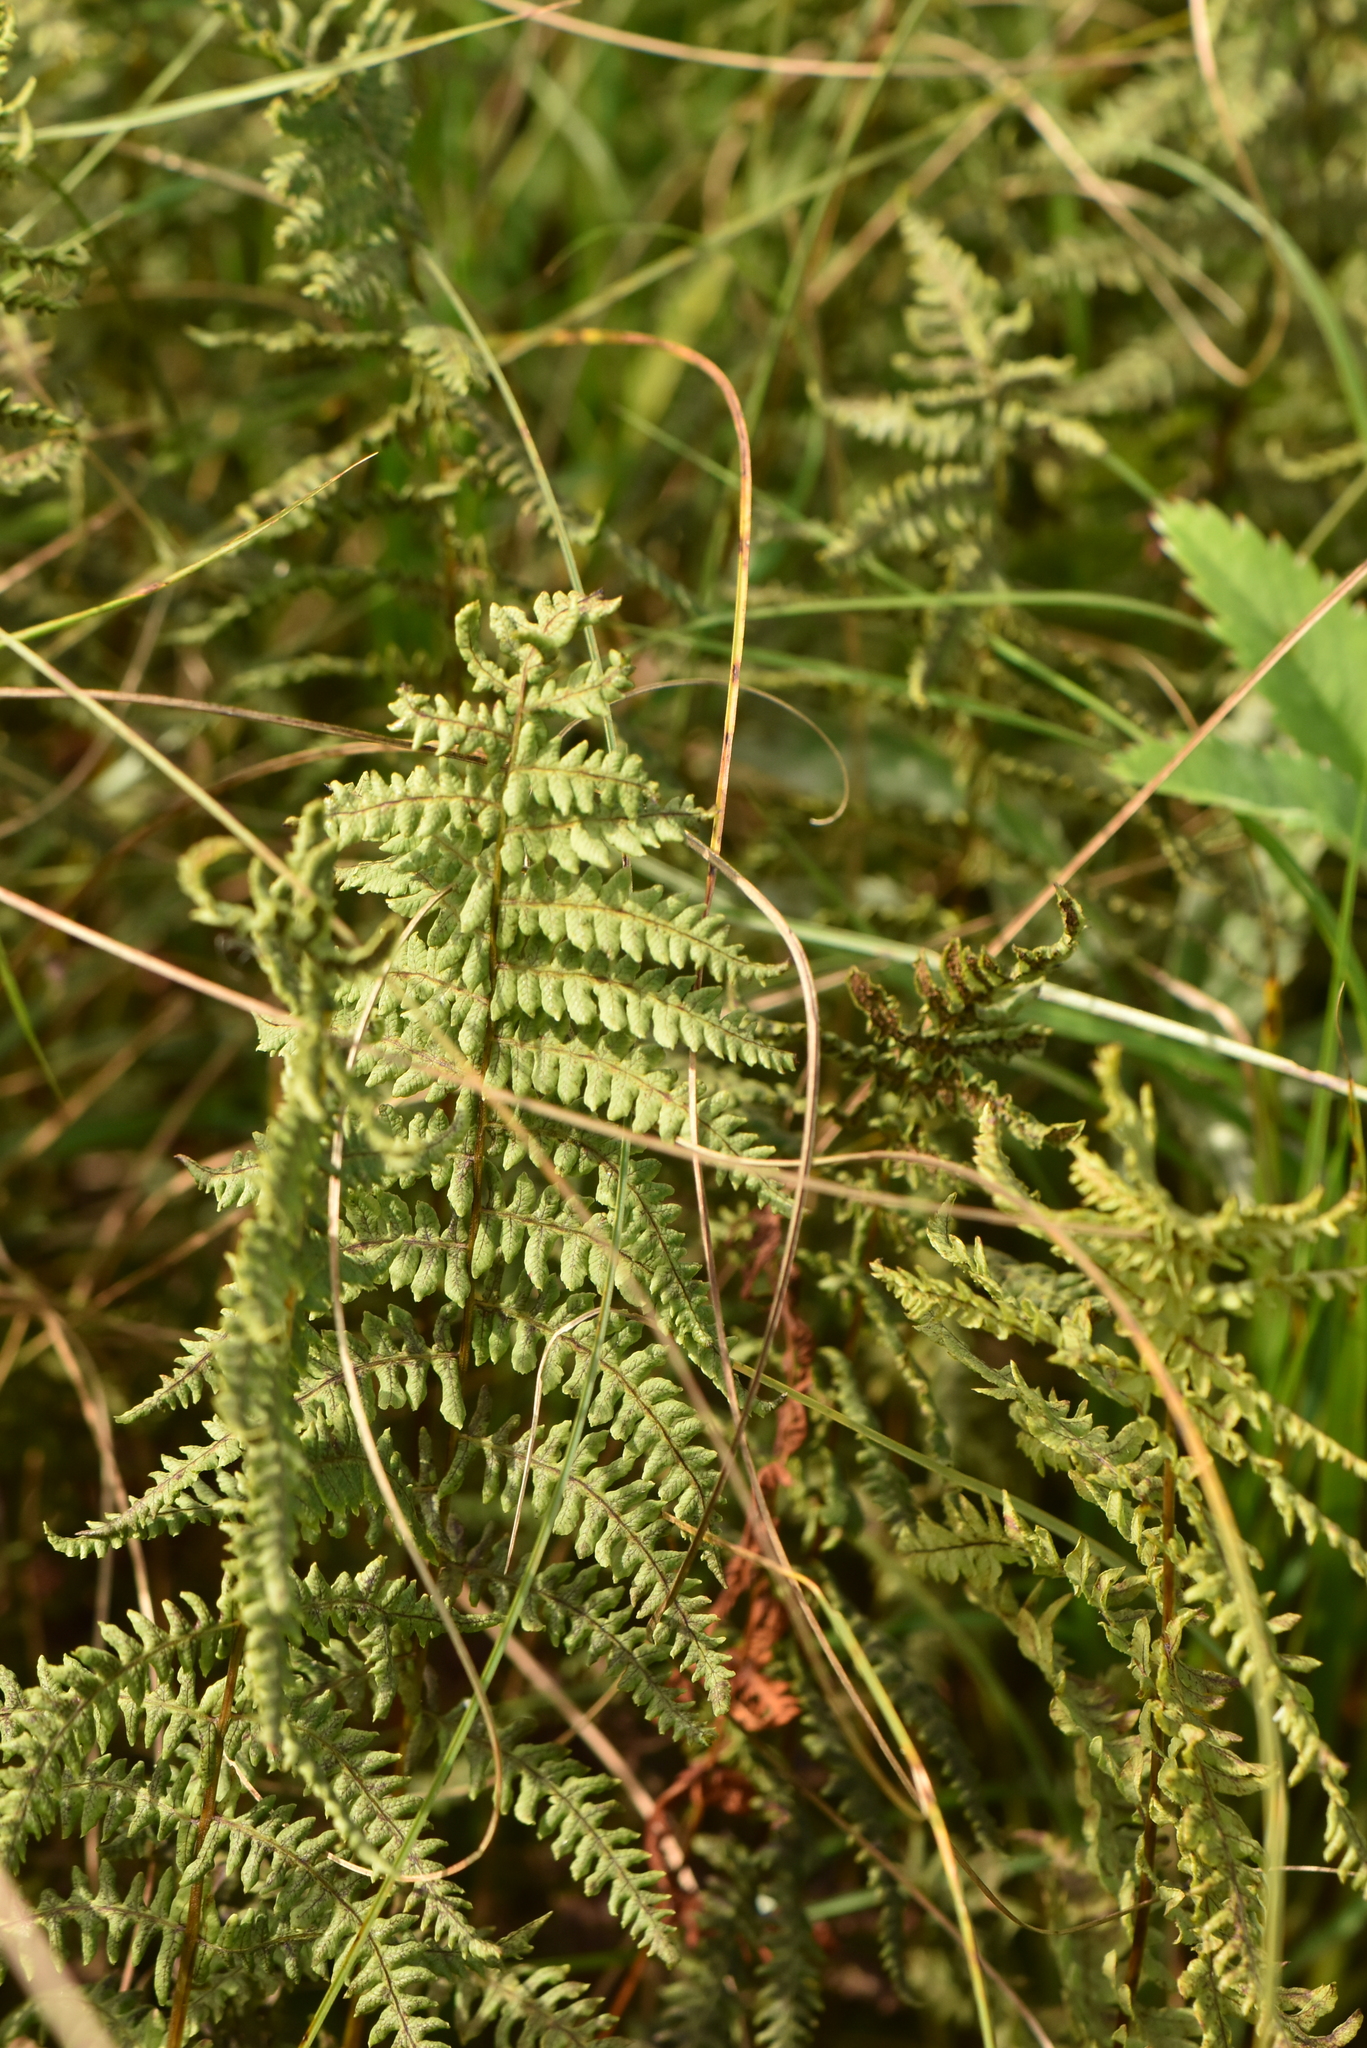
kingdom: Plantae
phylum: Tracheophyta
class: Polypodiopsida
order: Polypodiales
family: Thelypteridaceae
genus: Thelypteris
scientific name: Thelypteris palustris
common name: Marsh fern
